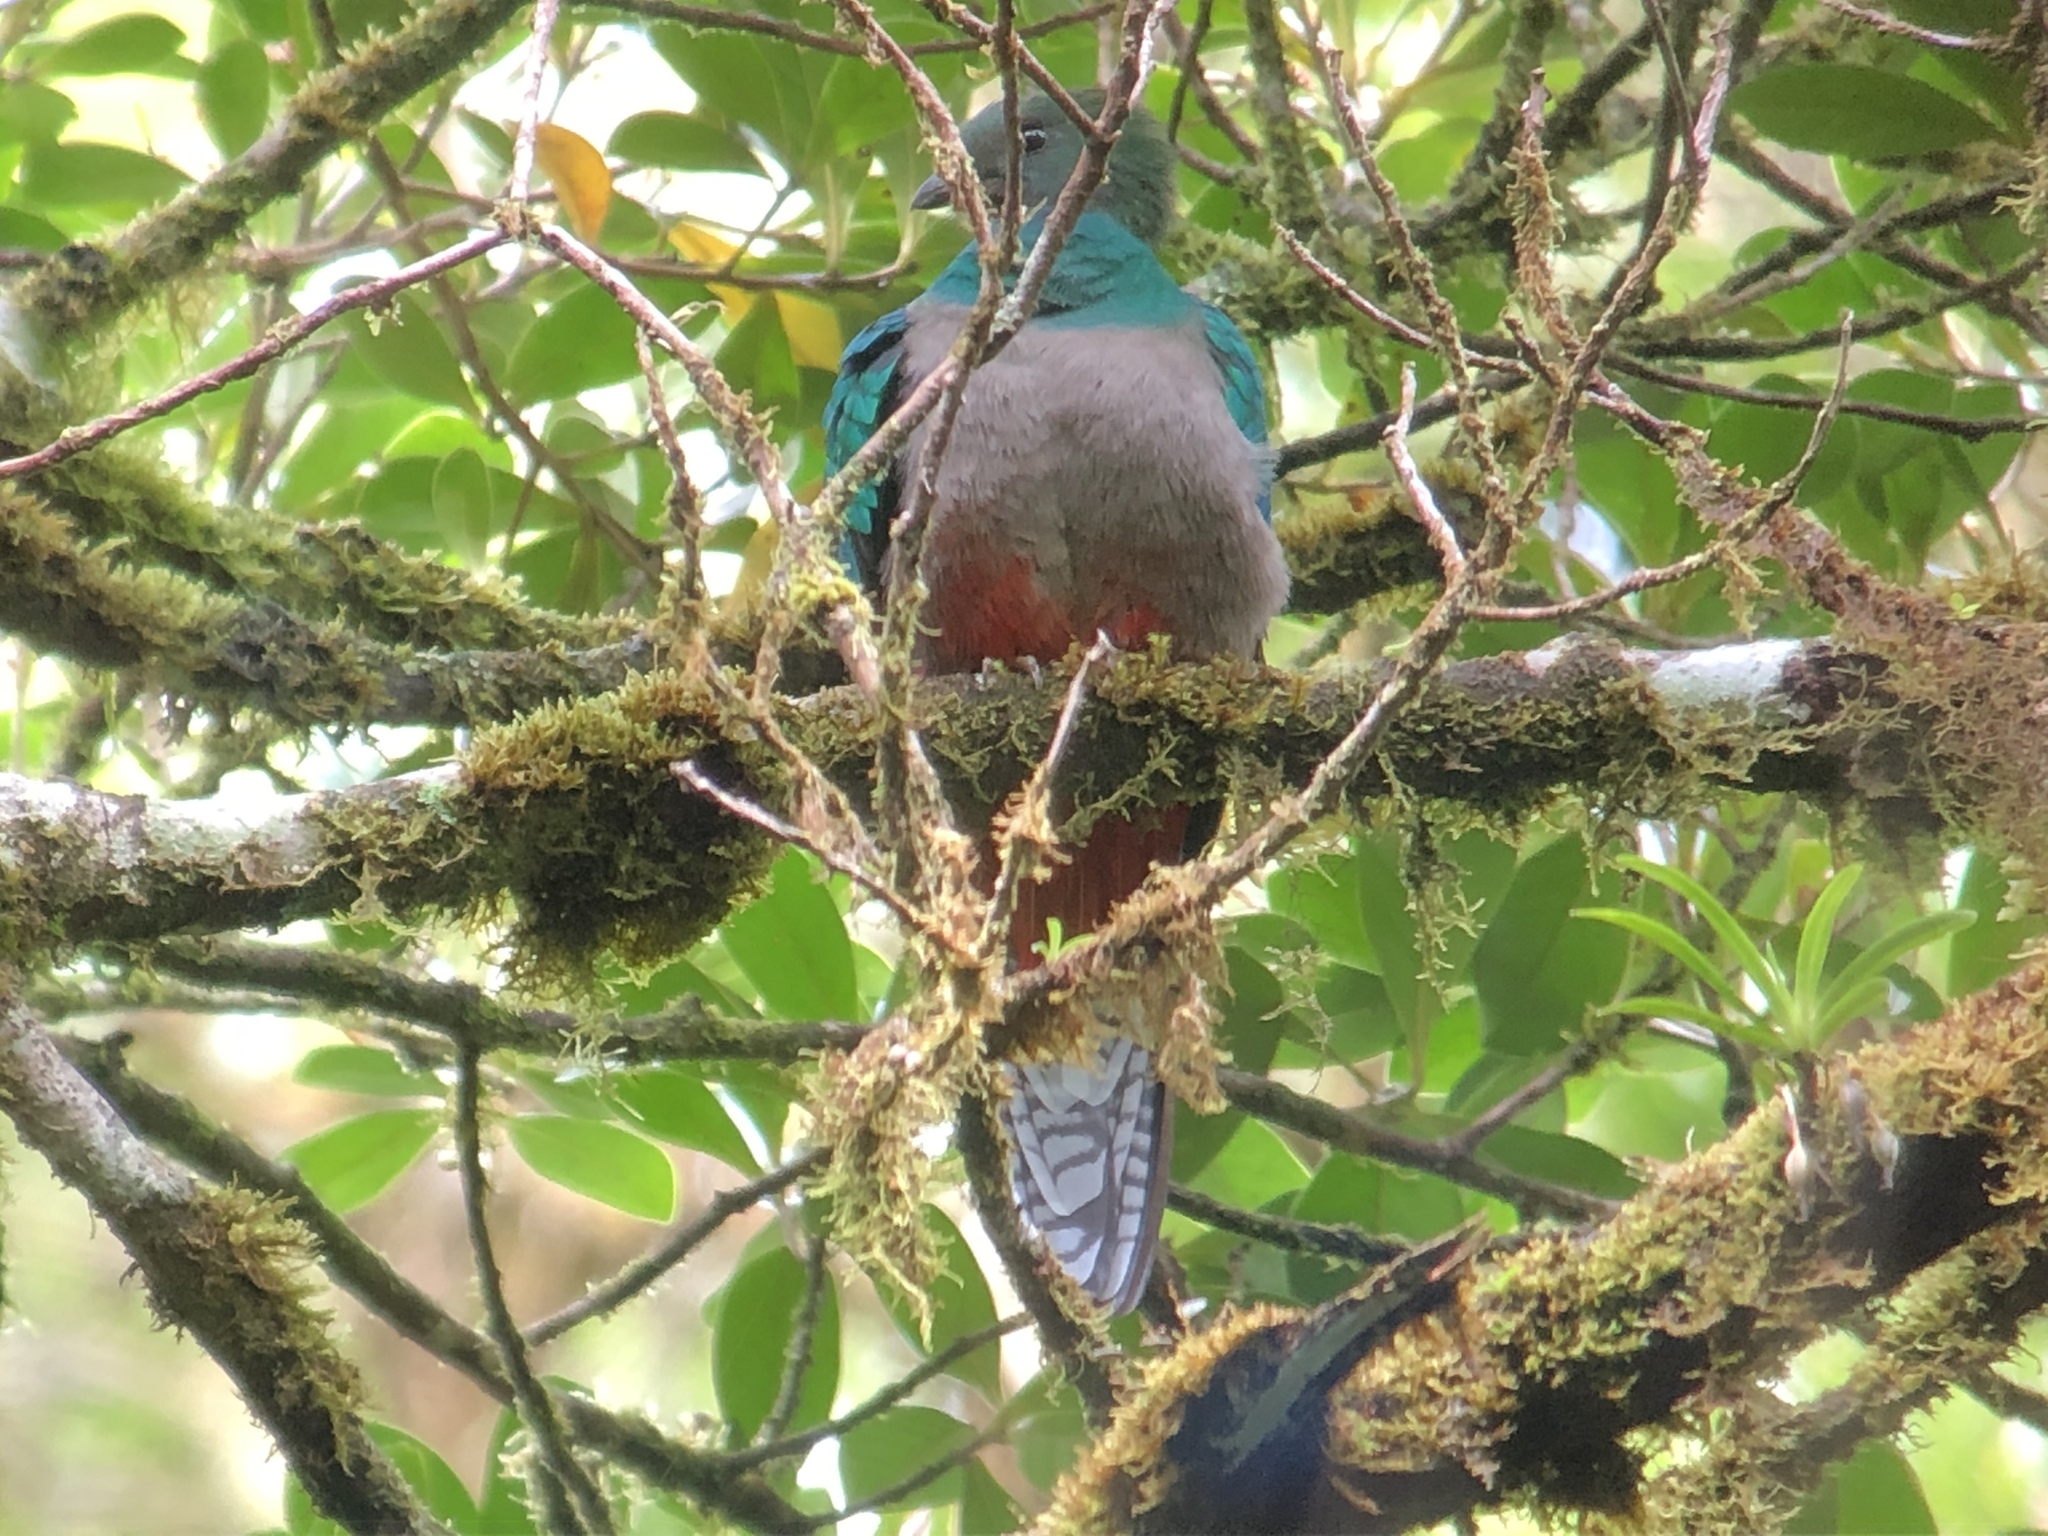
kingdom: Animalia
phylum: Chordata
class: Aves
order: Trogoniformes
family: Trogonidae
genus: Pharomachrus
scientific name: Pharomachrus mocinno
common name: Resplendent quetzal
